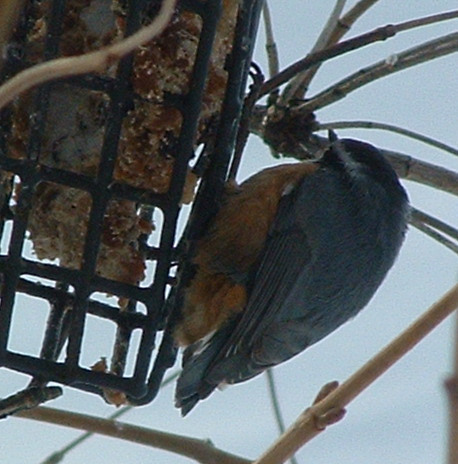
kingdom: Animalia
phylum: Chordata
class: Aves
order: Passeriformes
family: Sittidae
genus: Sitta
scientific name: Sitta canadensis
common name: Red-breasted nuthatch
